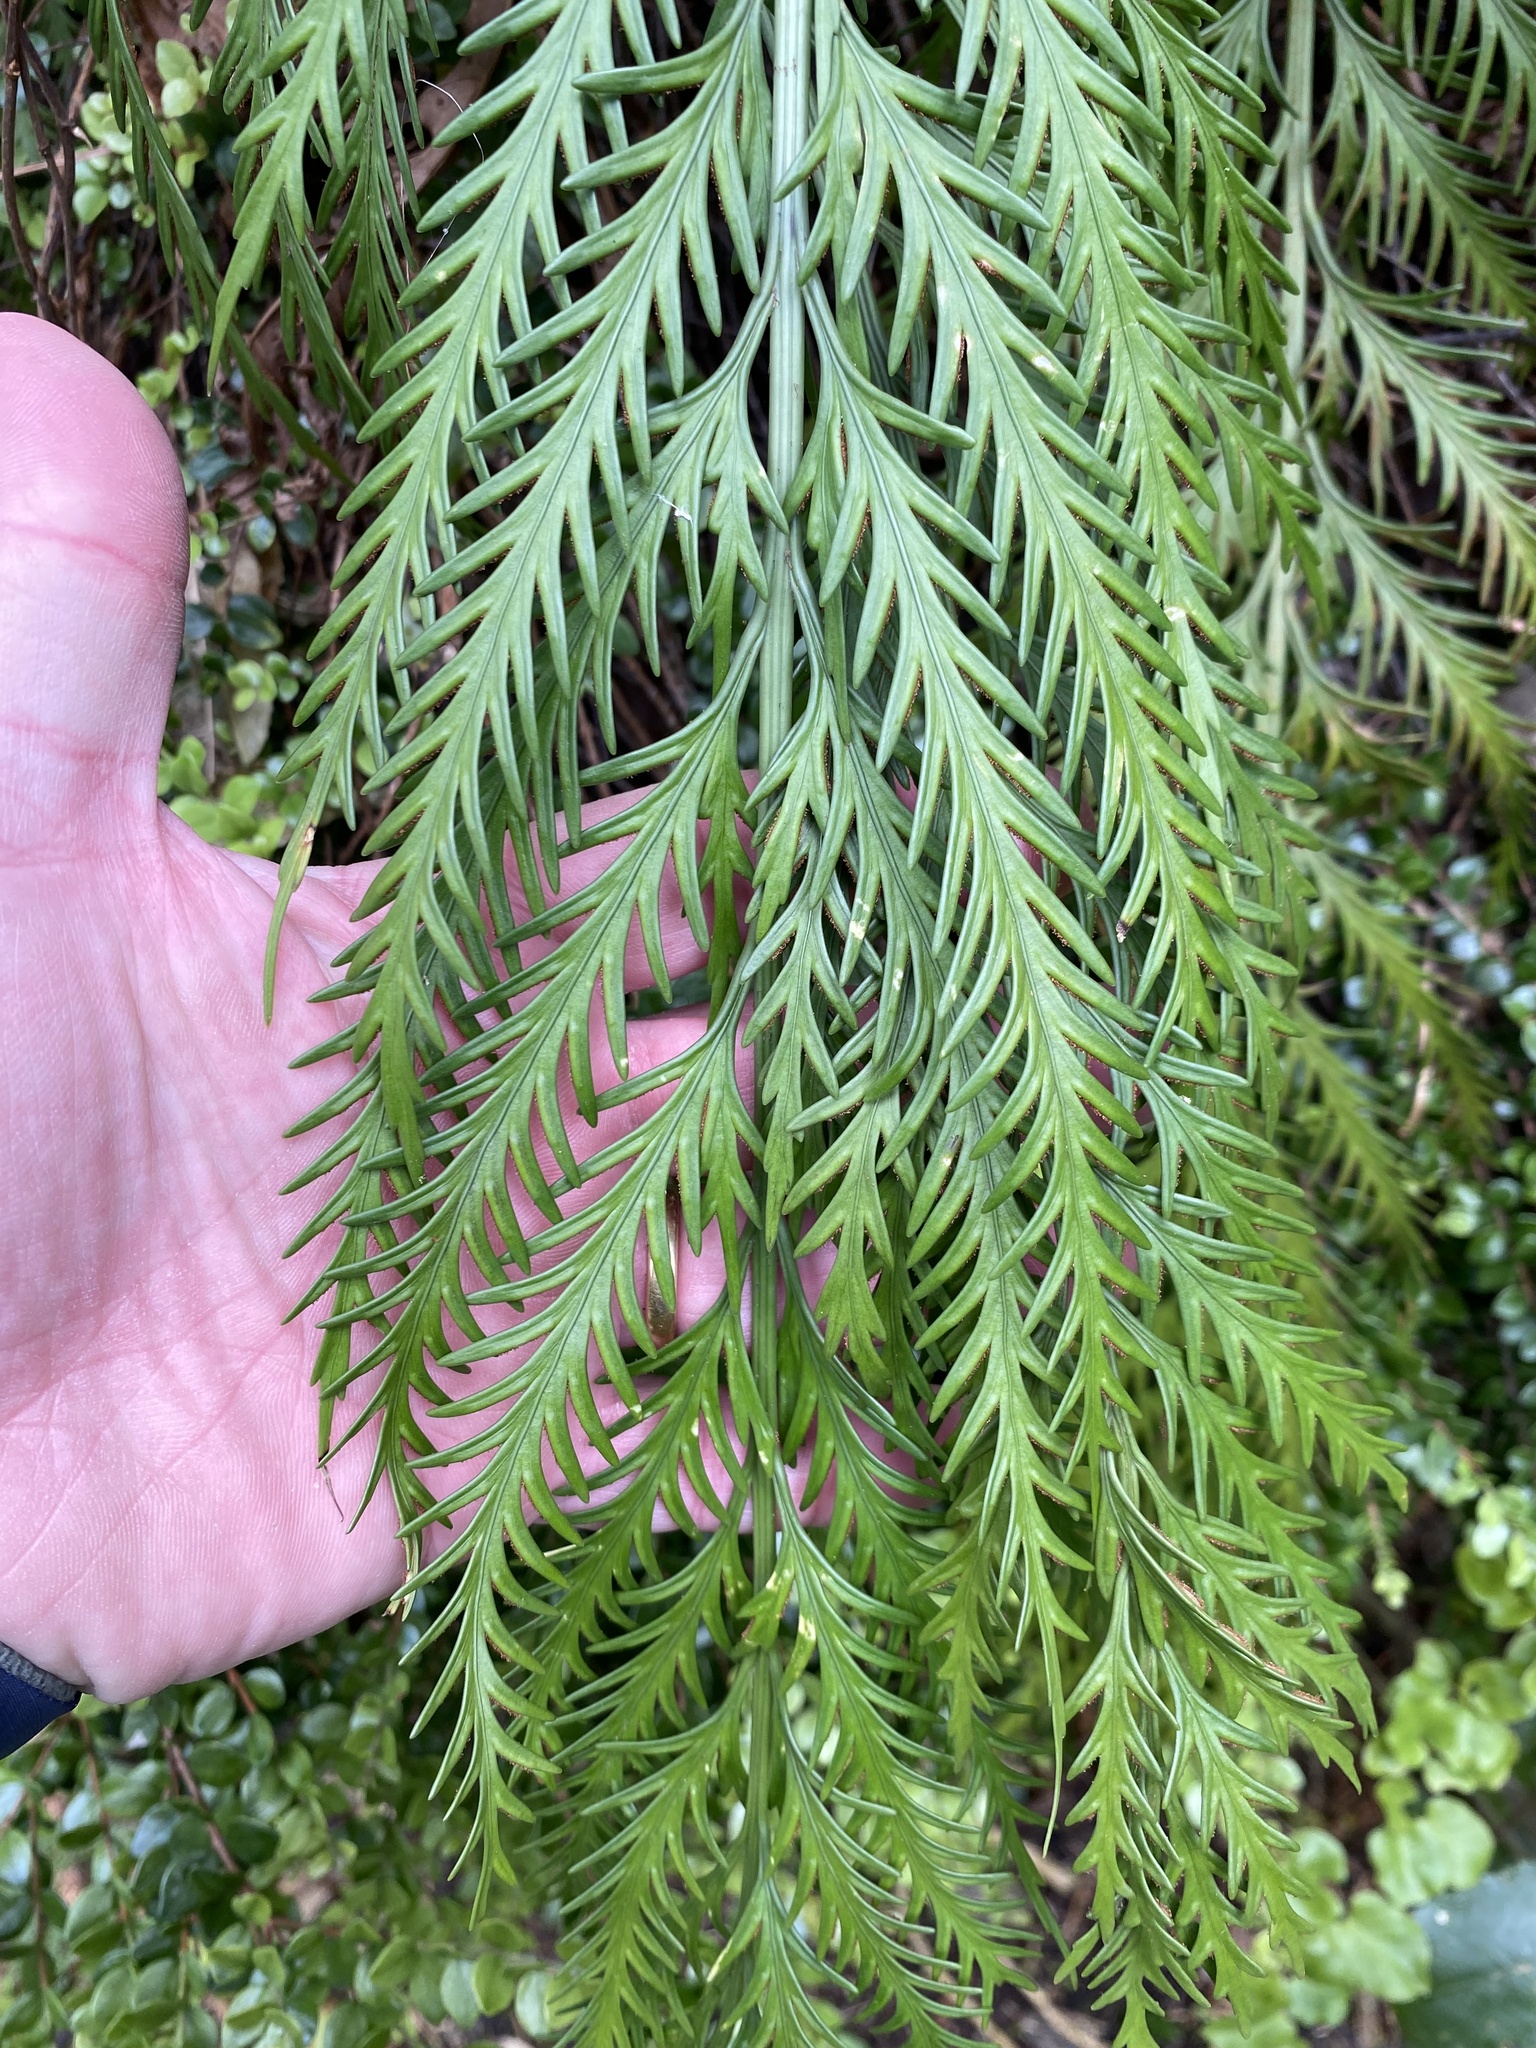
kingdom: Plantae
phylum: Tracheophyta
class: Polypodiopsida
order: Polypodiales
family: Aspleniaceae
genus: Asplenium
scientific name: Asplenium flaccidum
